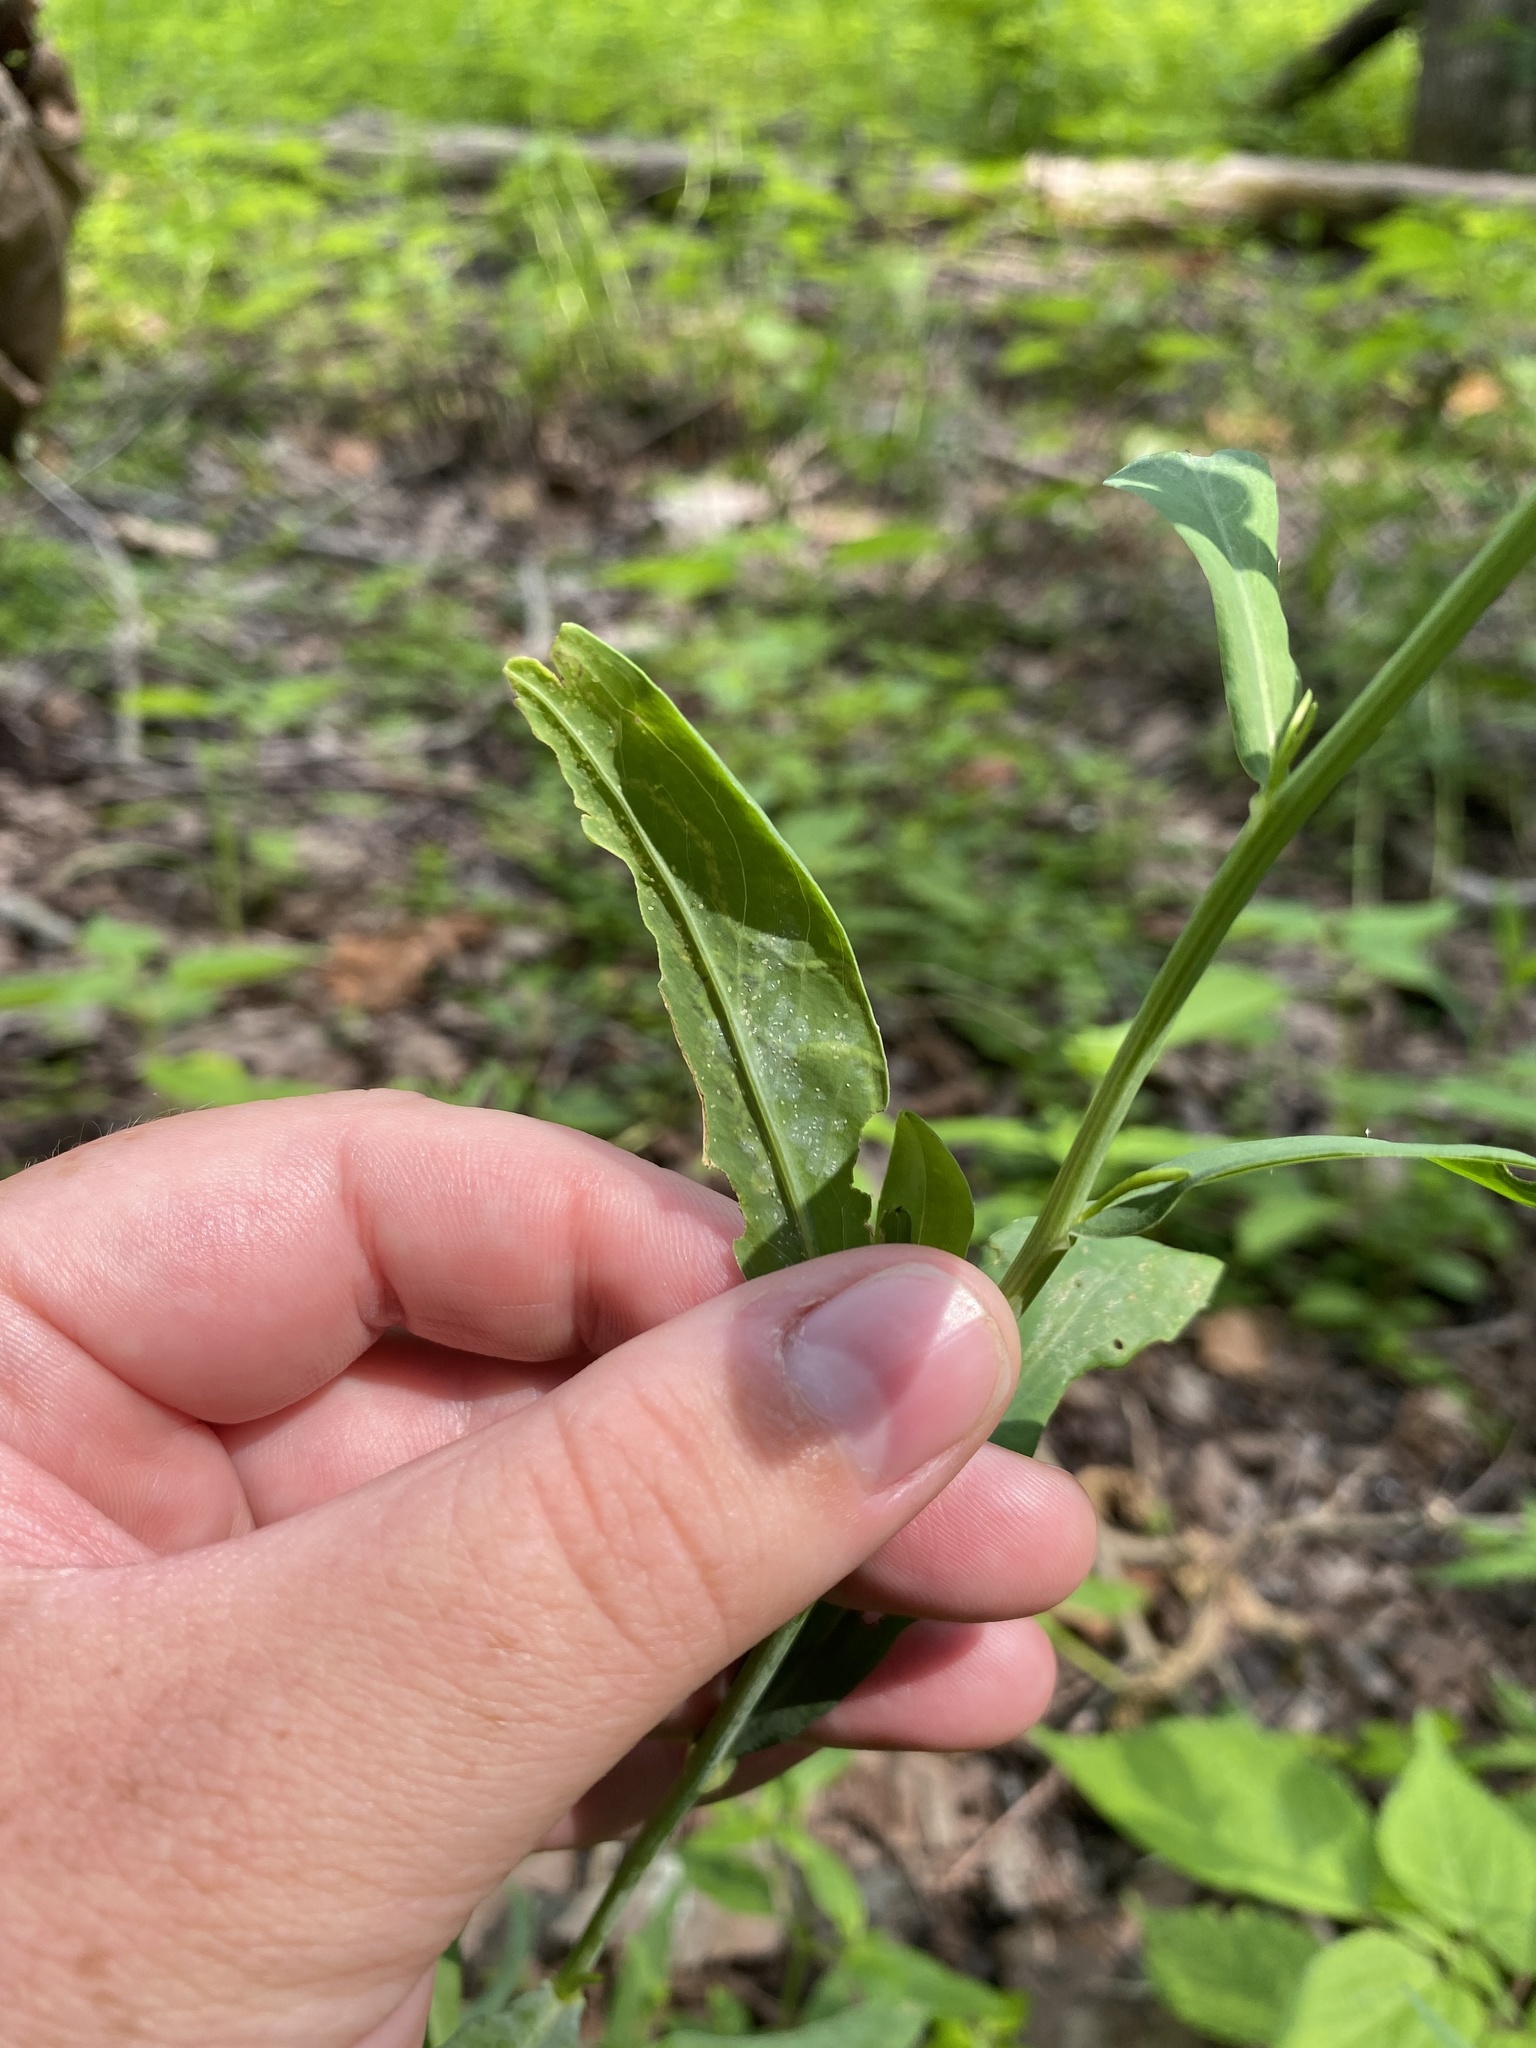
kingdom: Animalia
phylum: Arthropoda
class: Insecta
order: Diptera
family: Agromyzidae
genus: Liriomyza
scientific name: Liriomyza eupatorii
